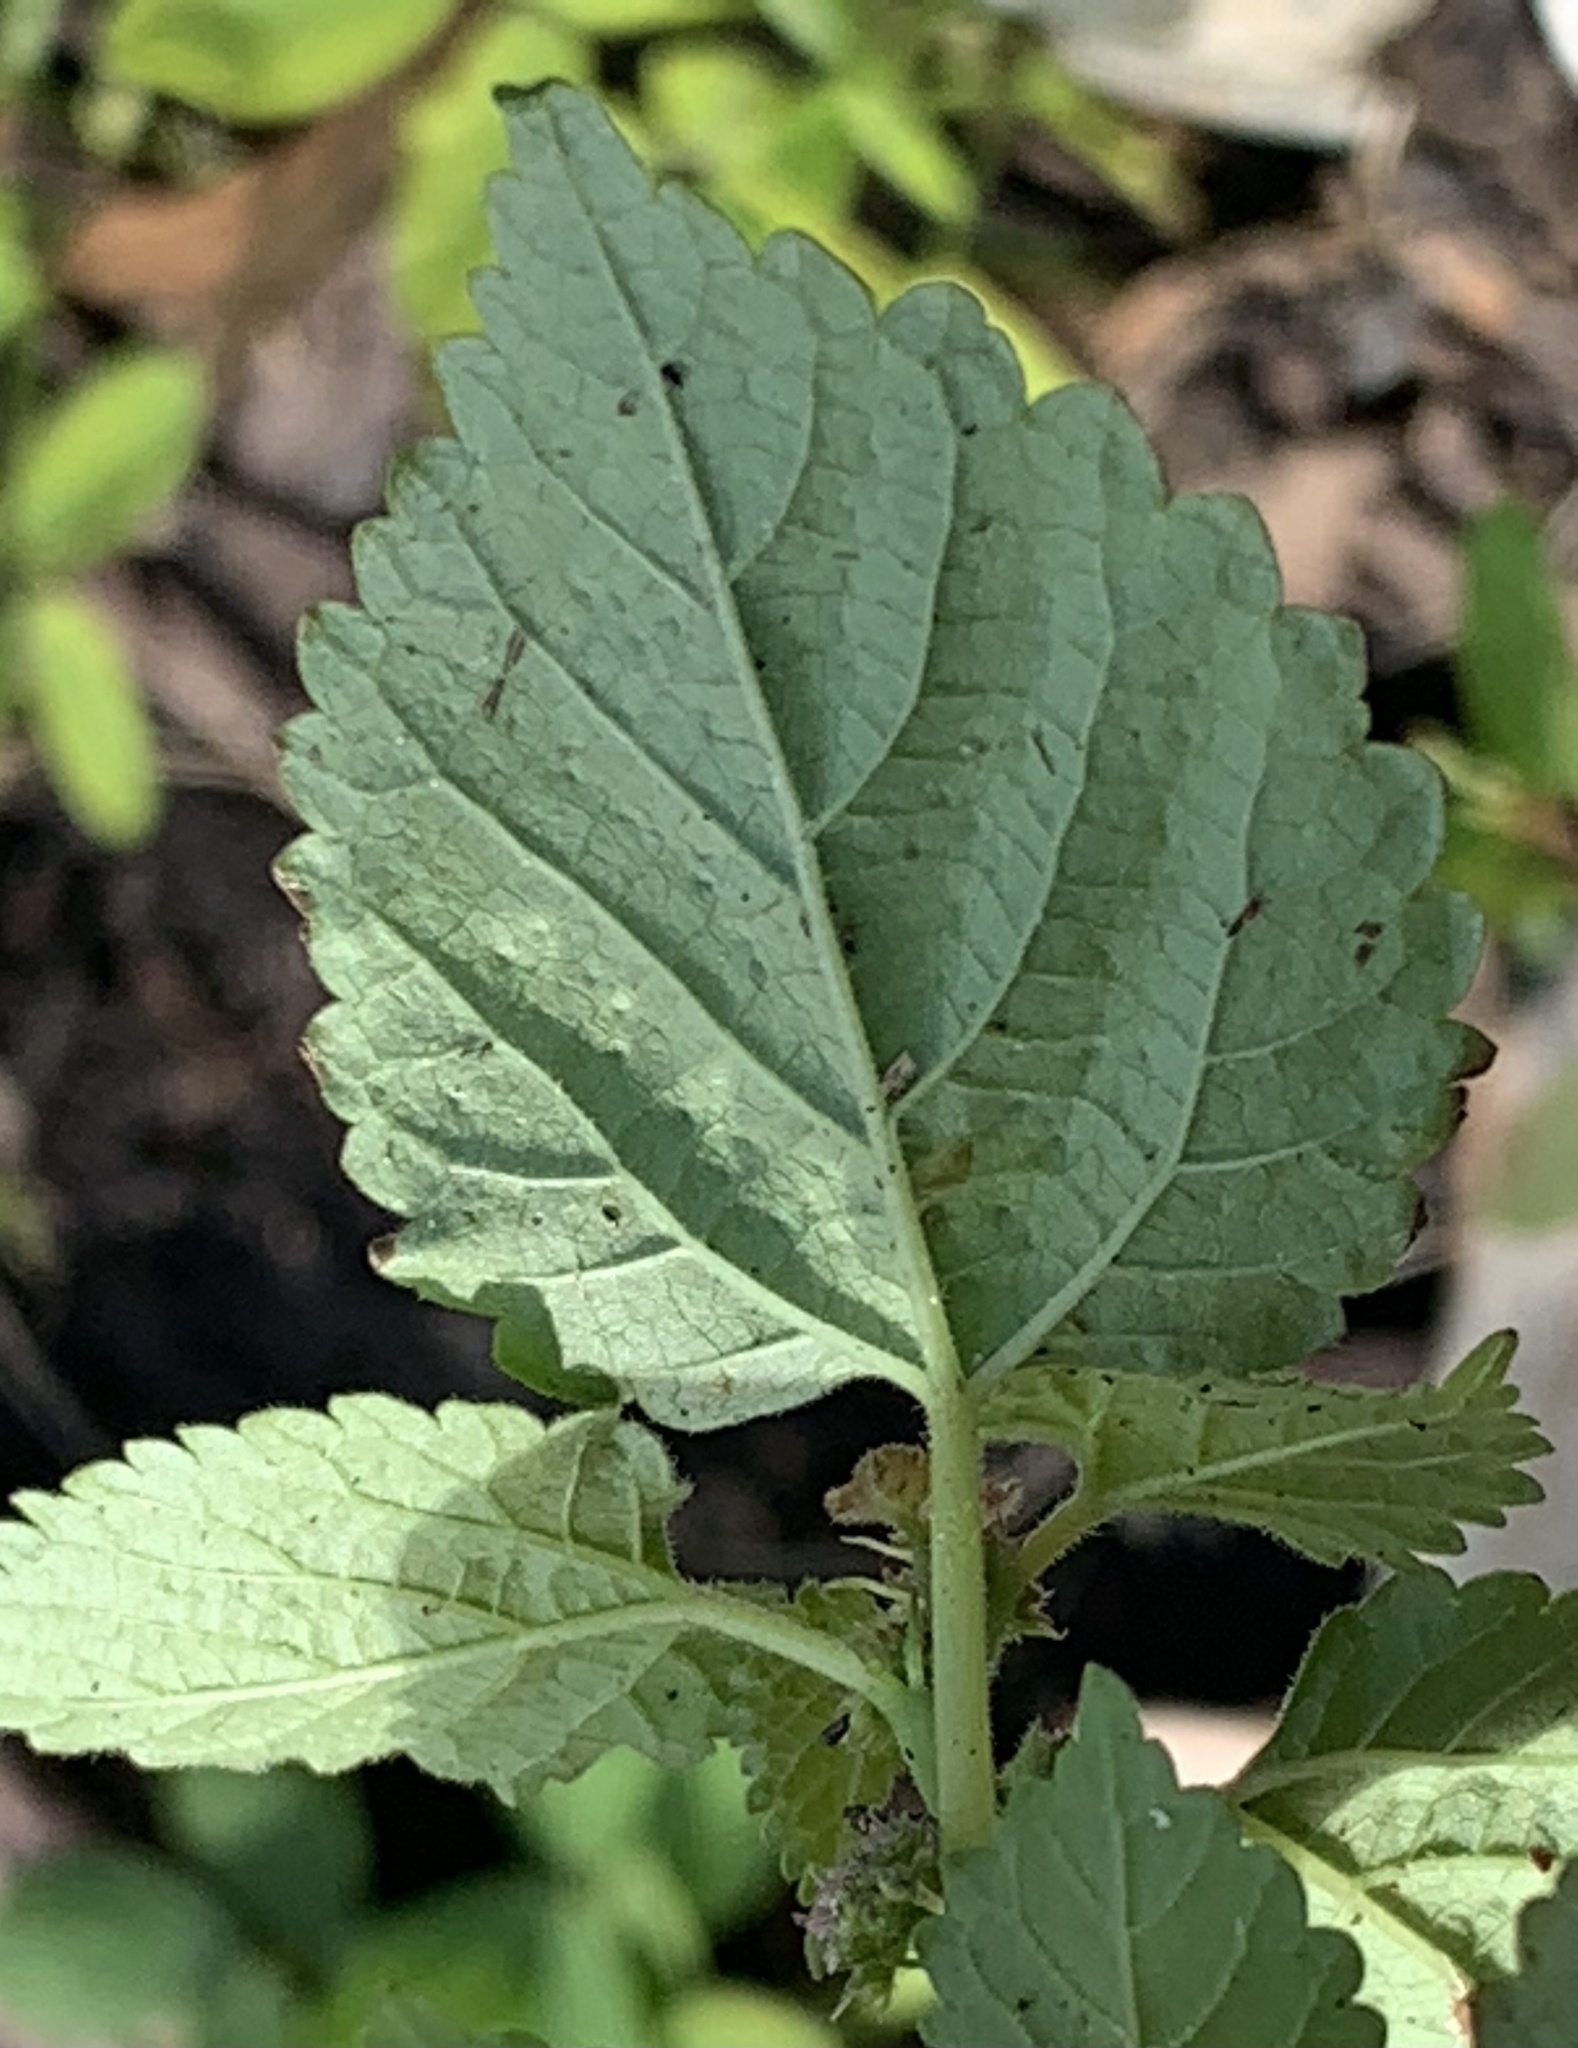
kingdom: Plantae
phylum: Tracheophyta
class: Magnoliopsida
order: Rosales
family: Moraceae
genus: Fatoua
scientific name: Fatoua villosa
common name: Hairy crabweed
